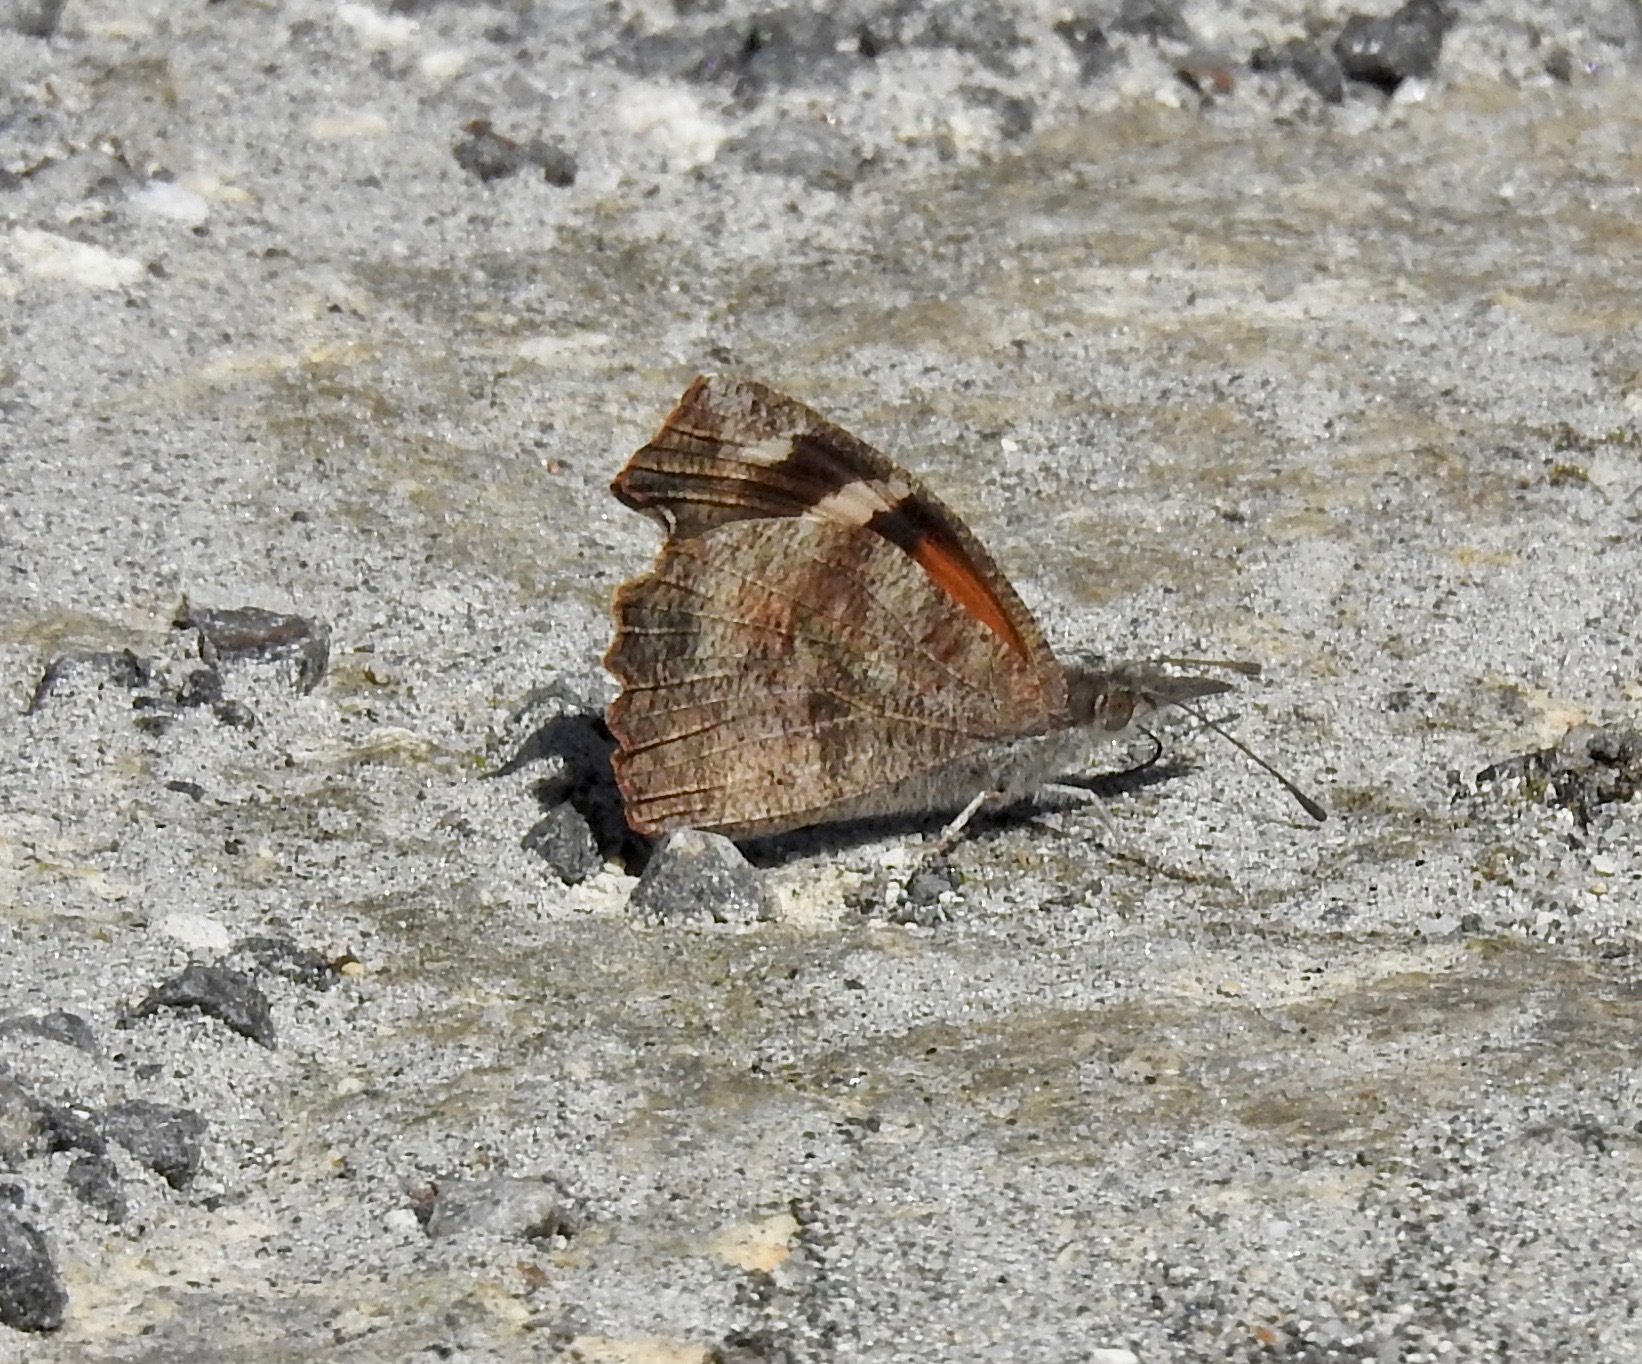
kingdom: Animalia
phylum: Arthropoda
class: Insecta
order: Lepidoptera
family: Nymphalidae
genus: Libytheana
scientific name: Libytheana carinenta
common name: American snout
